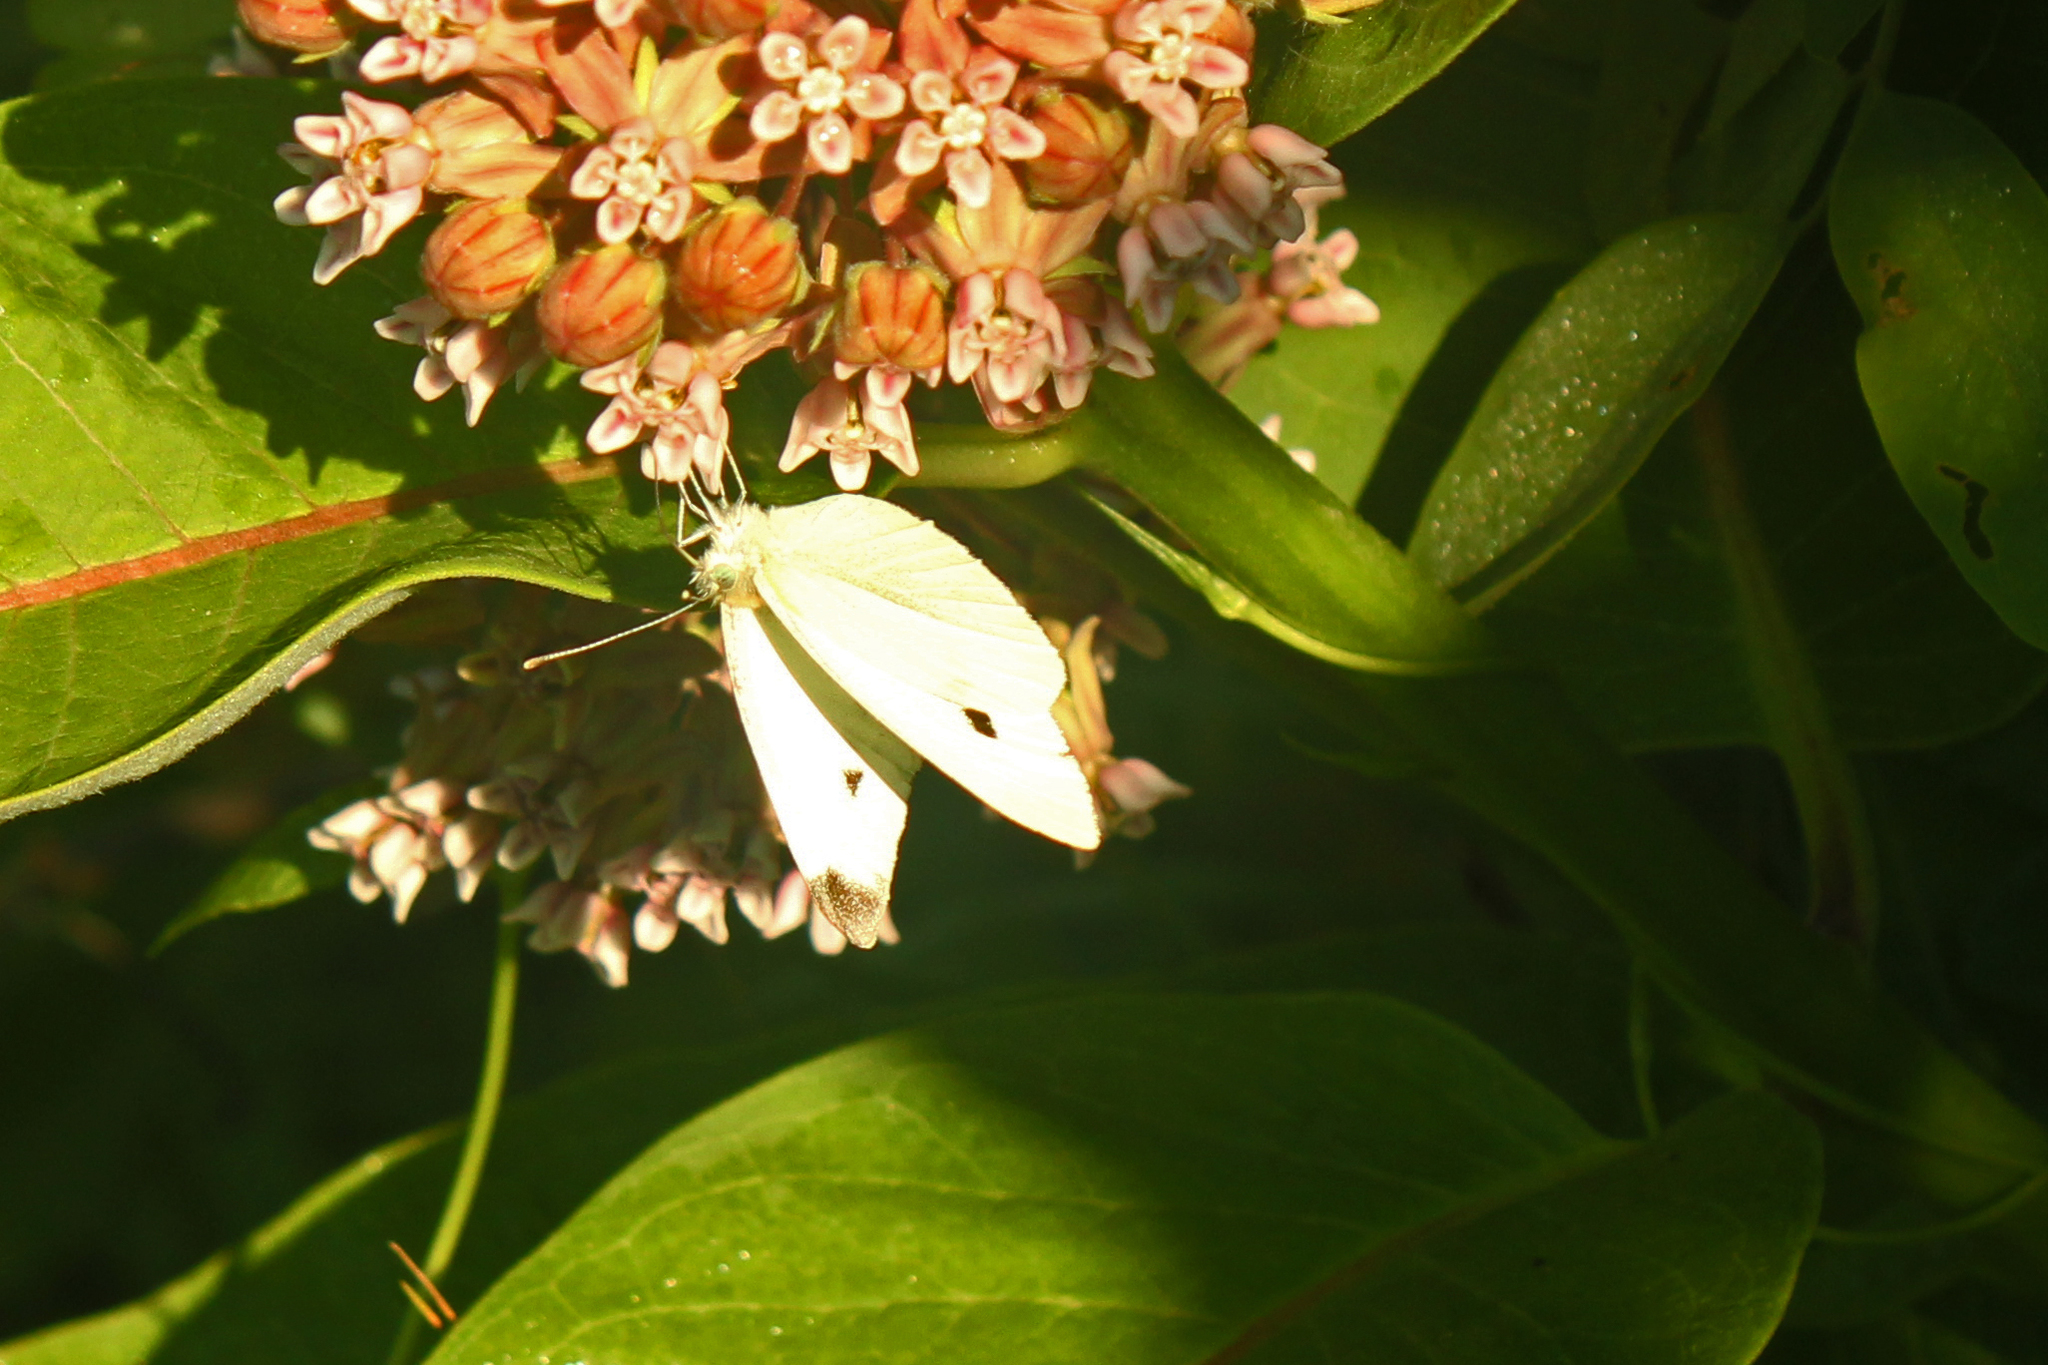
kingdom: Animalia
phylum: Arthropoda
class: Insecta
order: Lepidoptera
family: Pieridae
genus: Pieris
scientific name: Pieris rapae
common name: Small white
